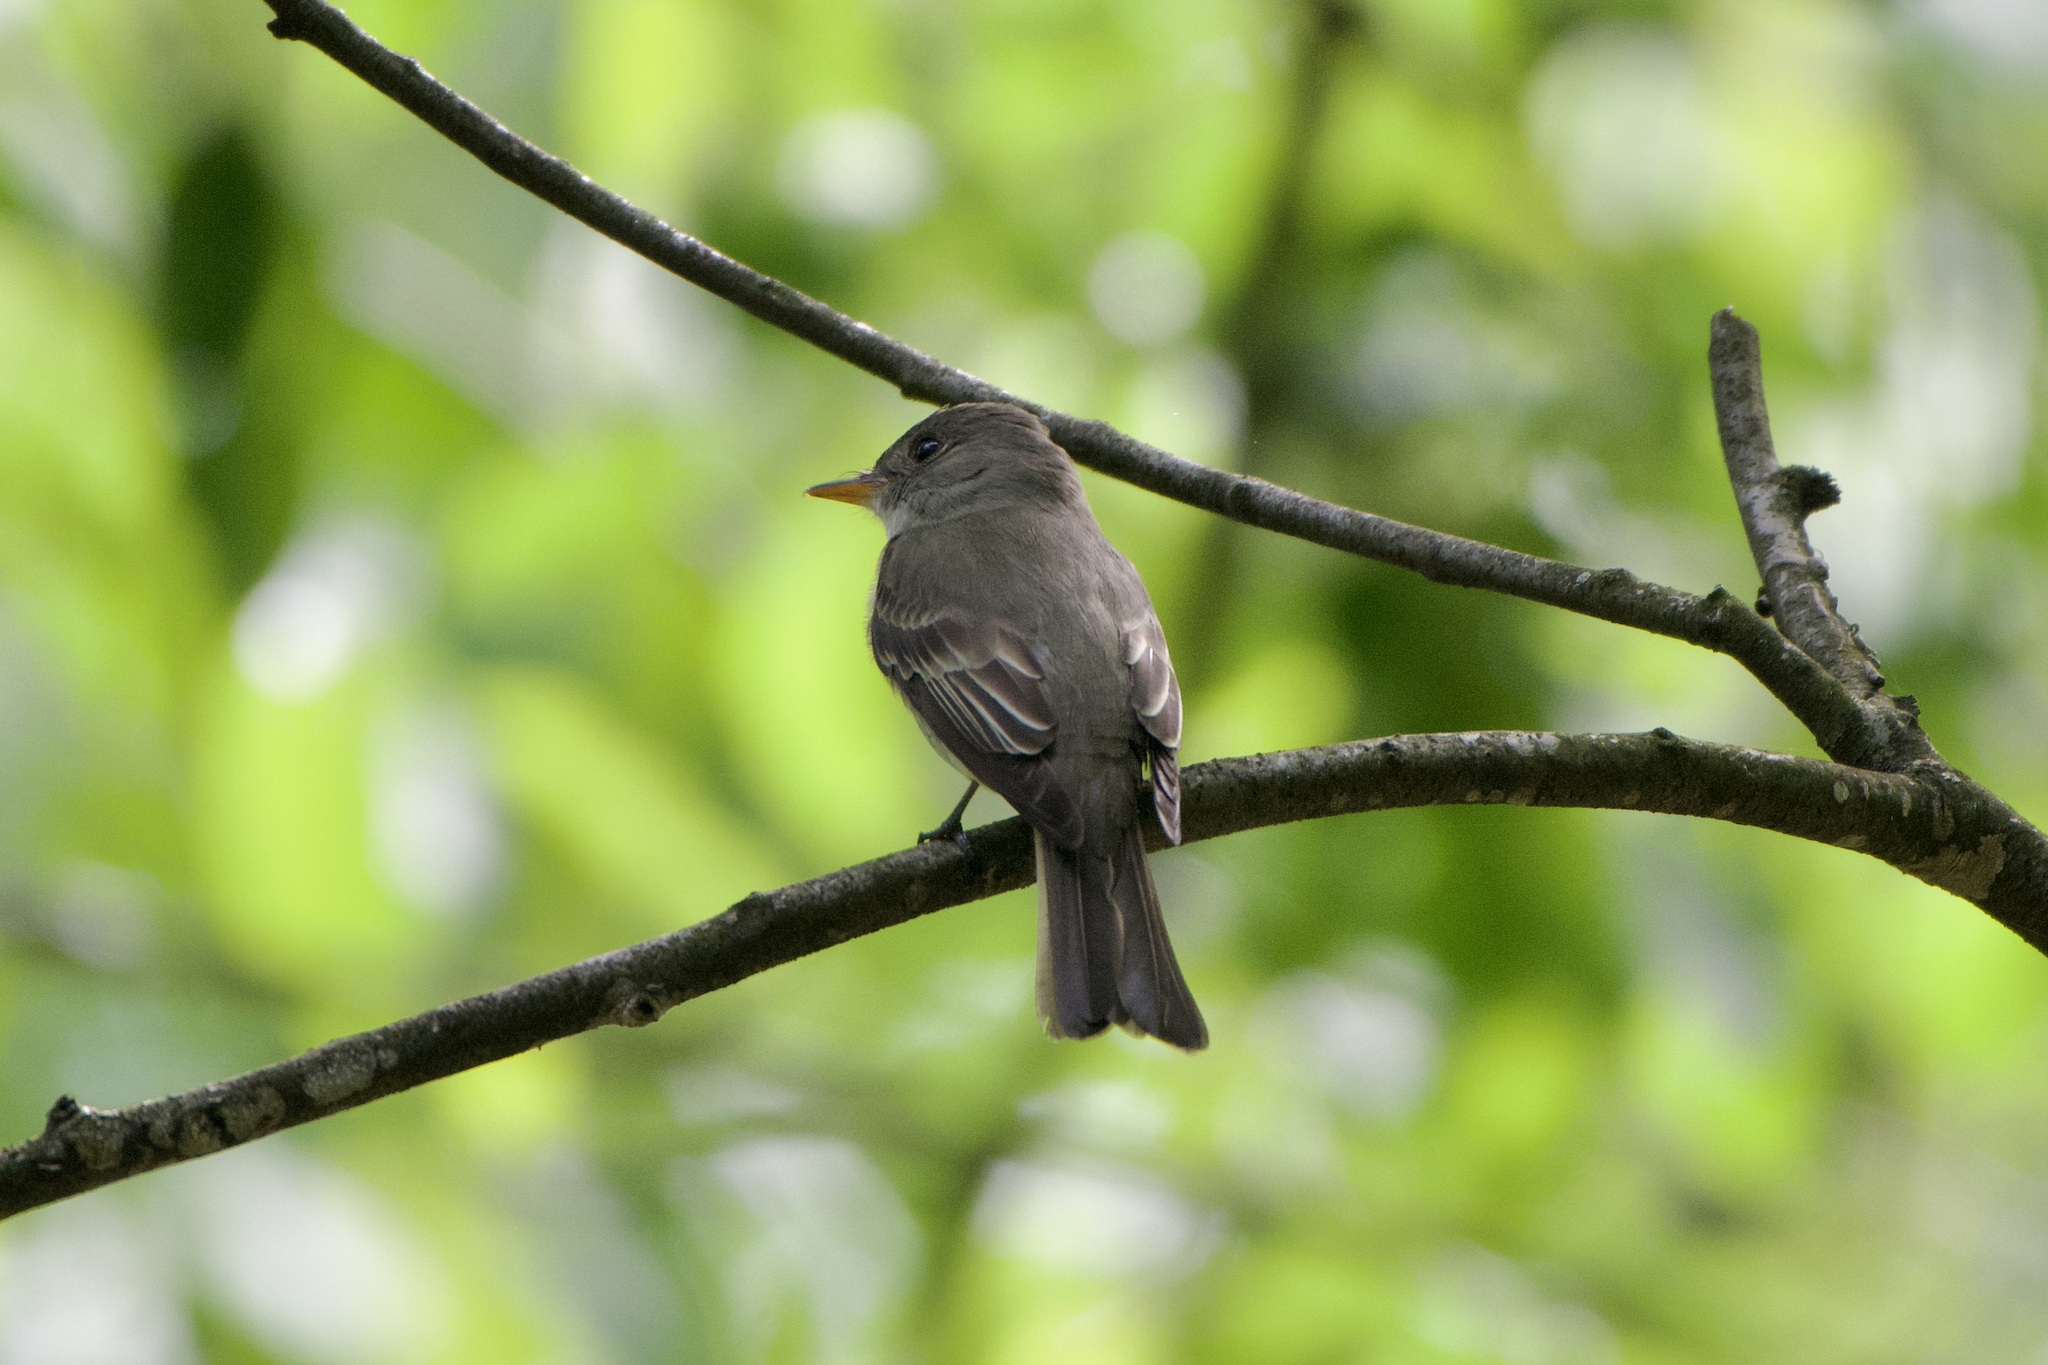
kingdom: Animalia
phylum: Chordata
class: Aves
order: Passeriformes
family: Tyrannidae
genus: Contopus
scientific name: Contopus virens
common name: Eastern wood-pewee
